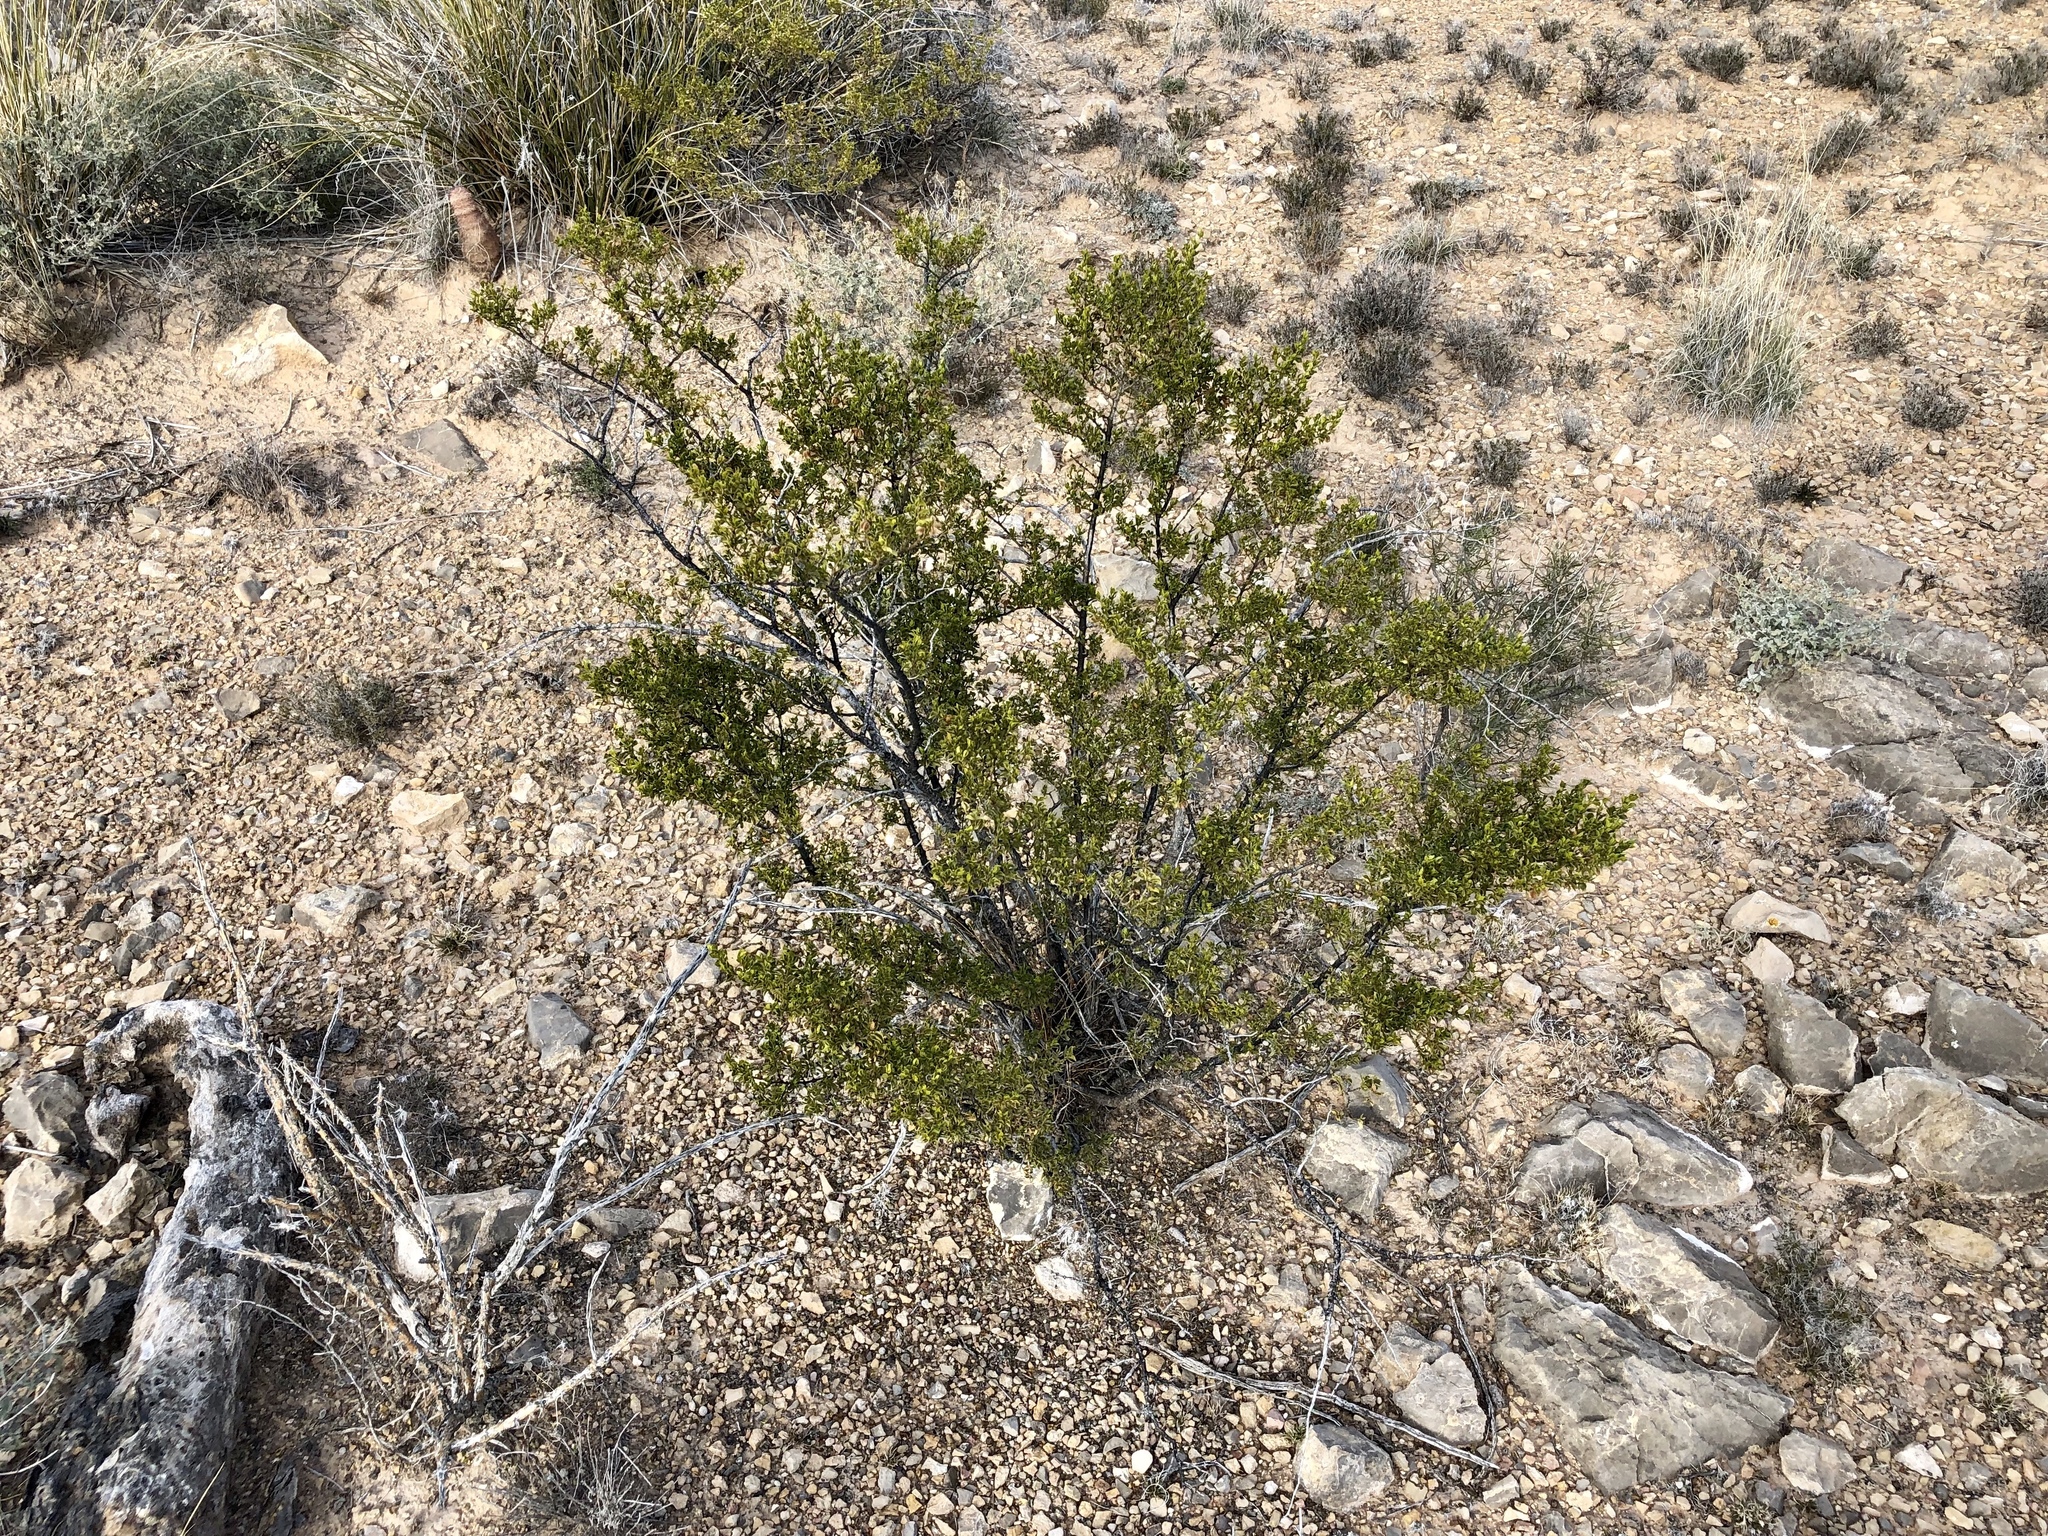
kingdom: Plantae
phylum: Tracheophyta
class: Magnoliopsida
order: Zygophyllales
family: Zygophyllaceae
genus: Larrea
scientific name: Larrea tridentata
